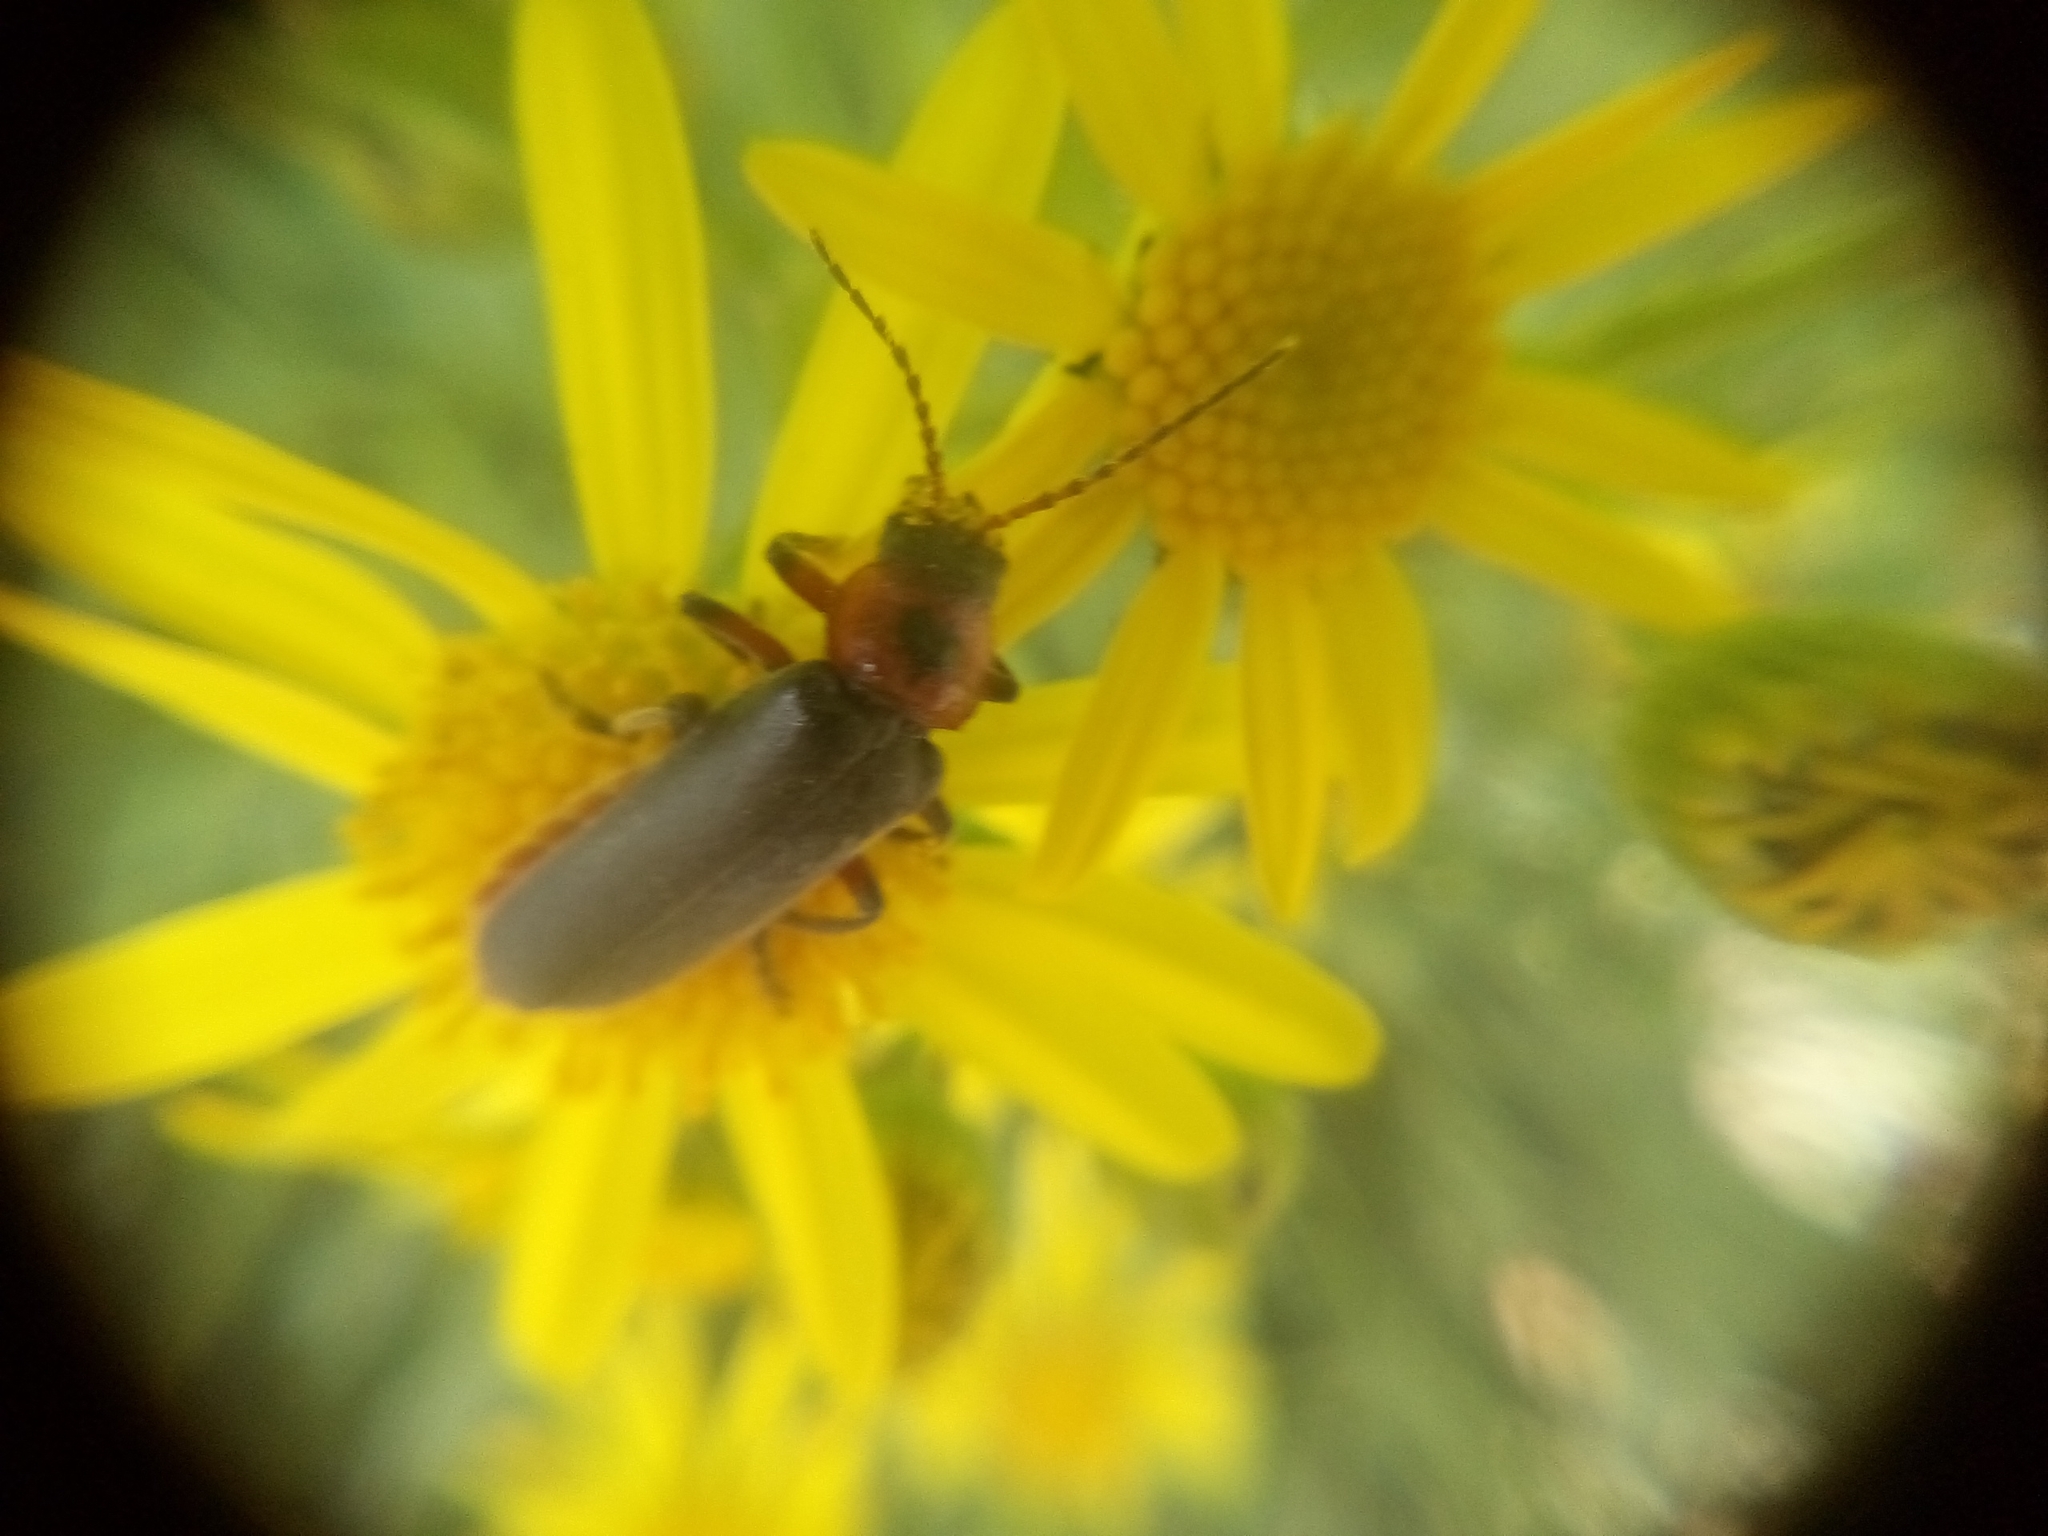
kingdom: Animalia
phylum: Arthropoda
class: Insecta
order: Coleoptera
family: Cantharidae
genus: Cantharis
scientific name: Cantharis rustica
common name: Soldier beetle
